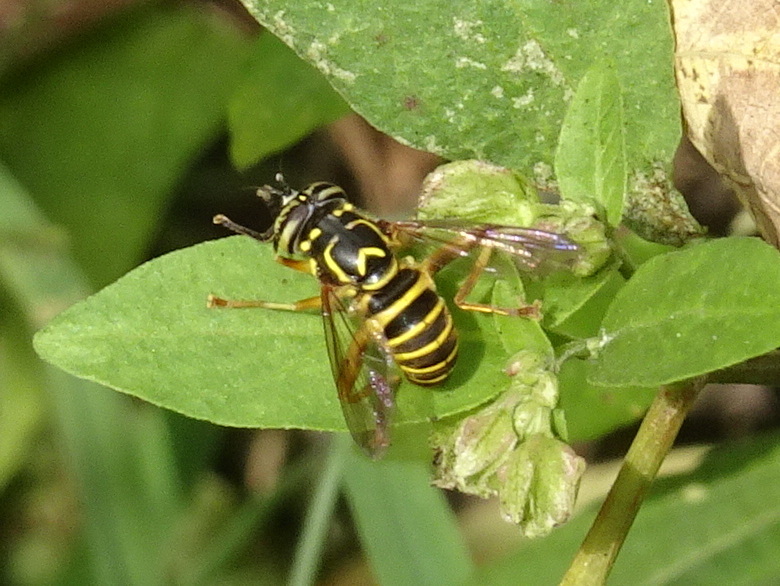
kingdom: Animalia
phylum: Arthropoda
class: Insecta
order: Diptera
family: Syrphidae
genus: Spilomyia
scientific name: Spilomyia longicornis
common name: Eastern hornet fly
